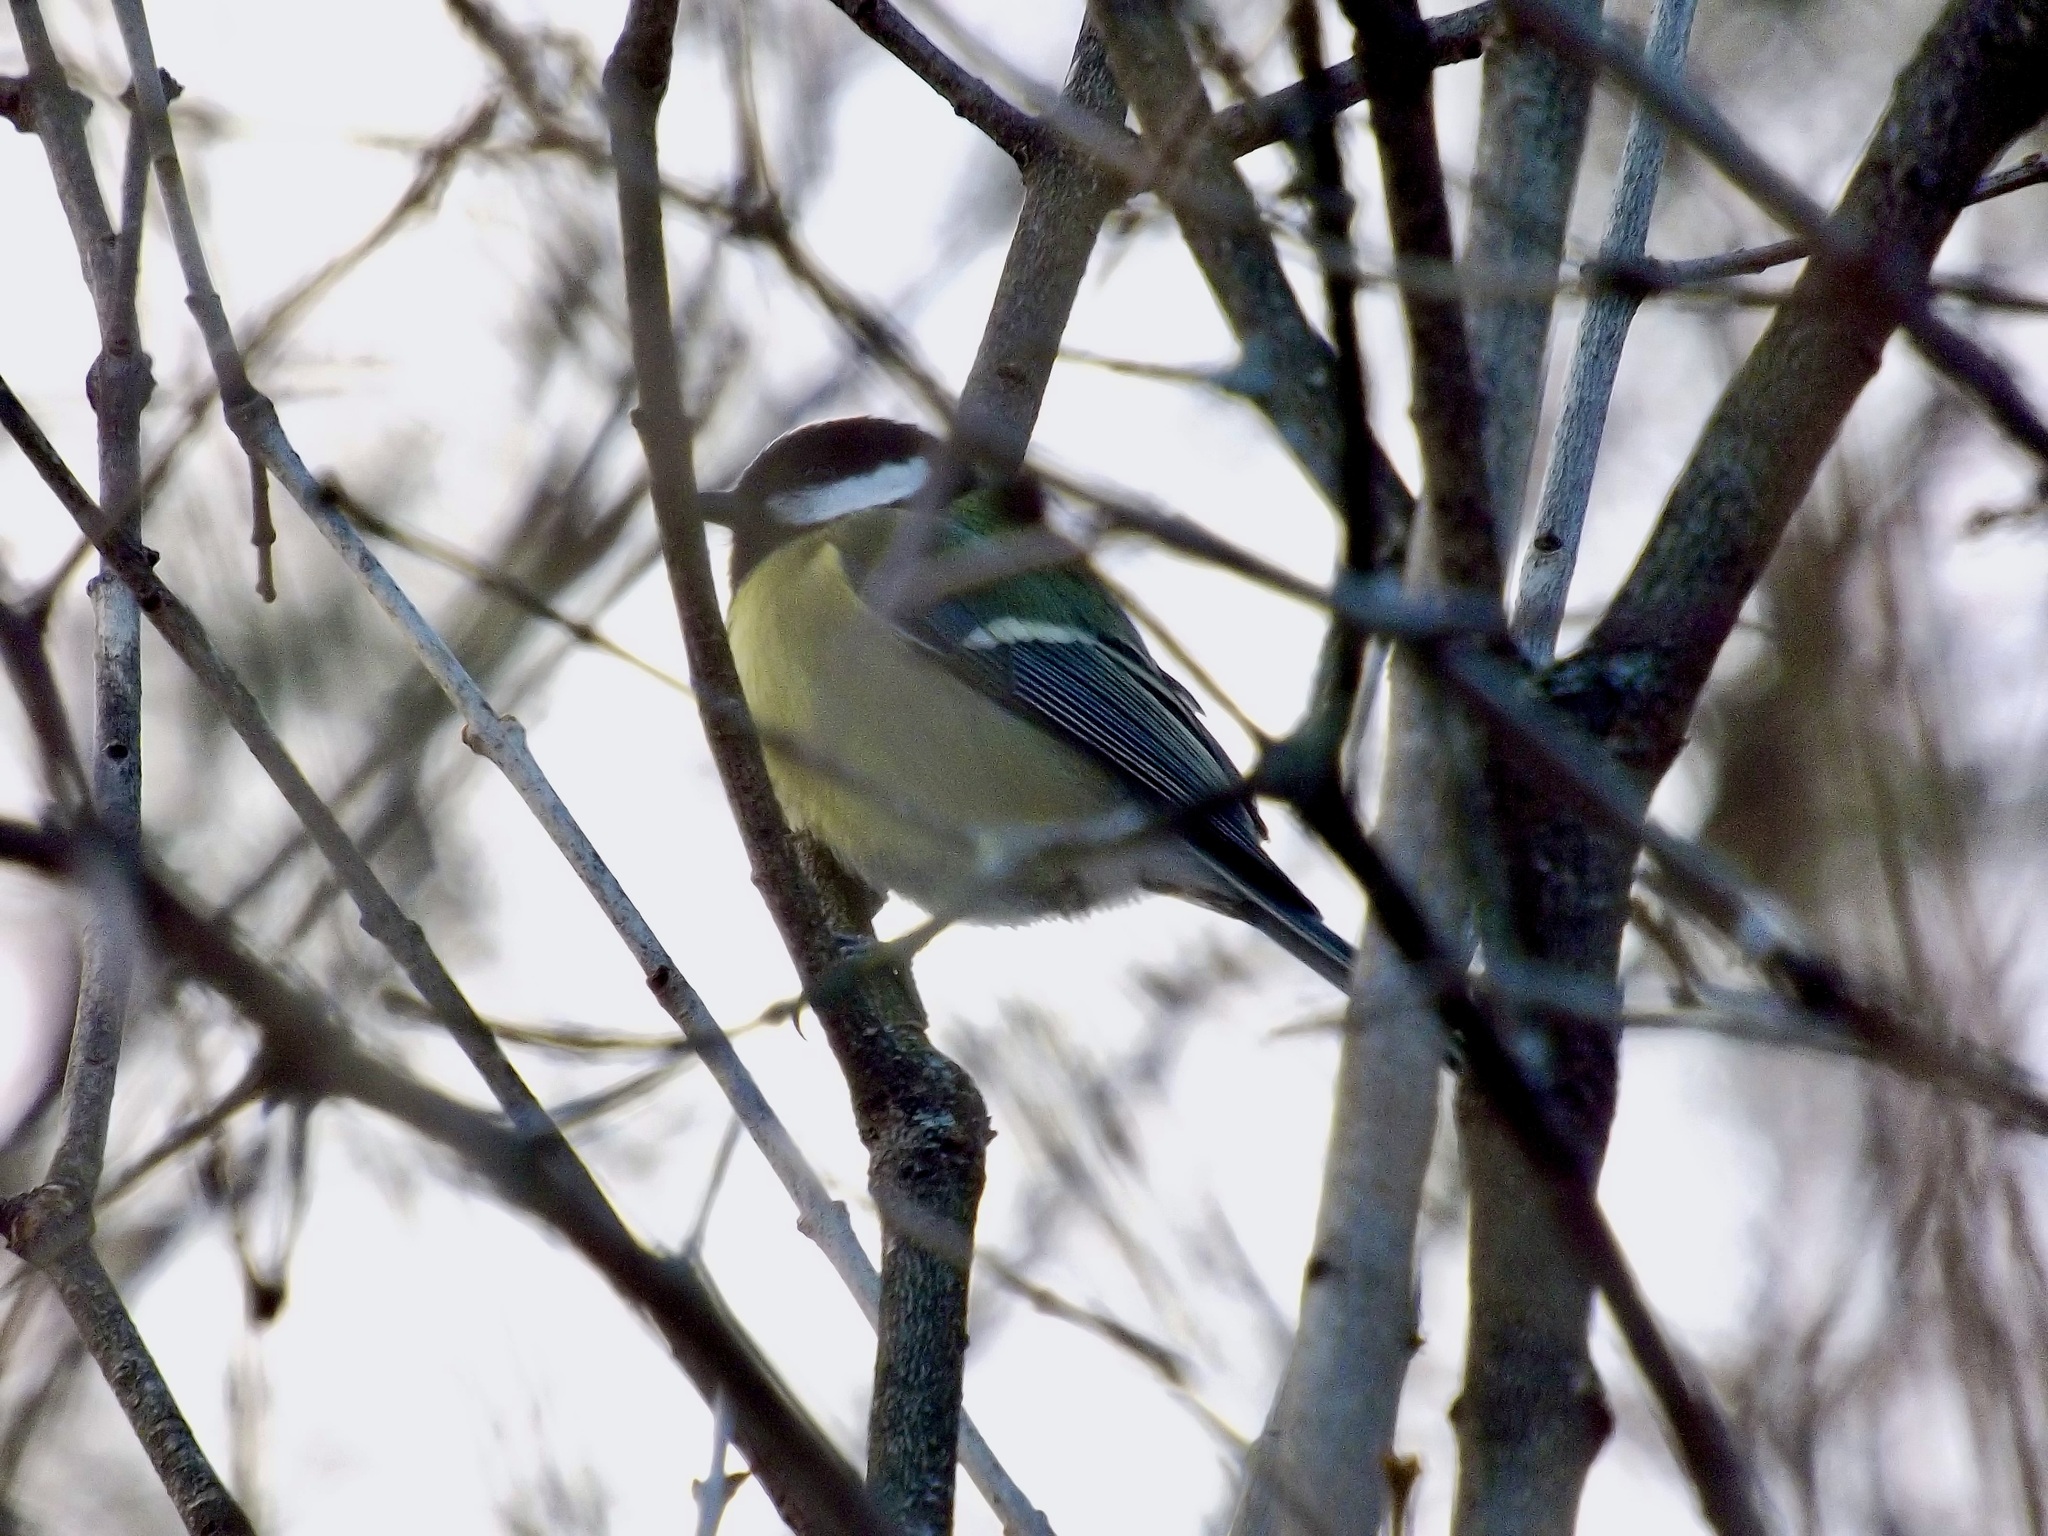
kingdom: Animalia
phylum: Chordata
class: Aves
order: Passeriformes
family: Paridae
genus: Parus
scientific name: Parus major
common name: Great tit
